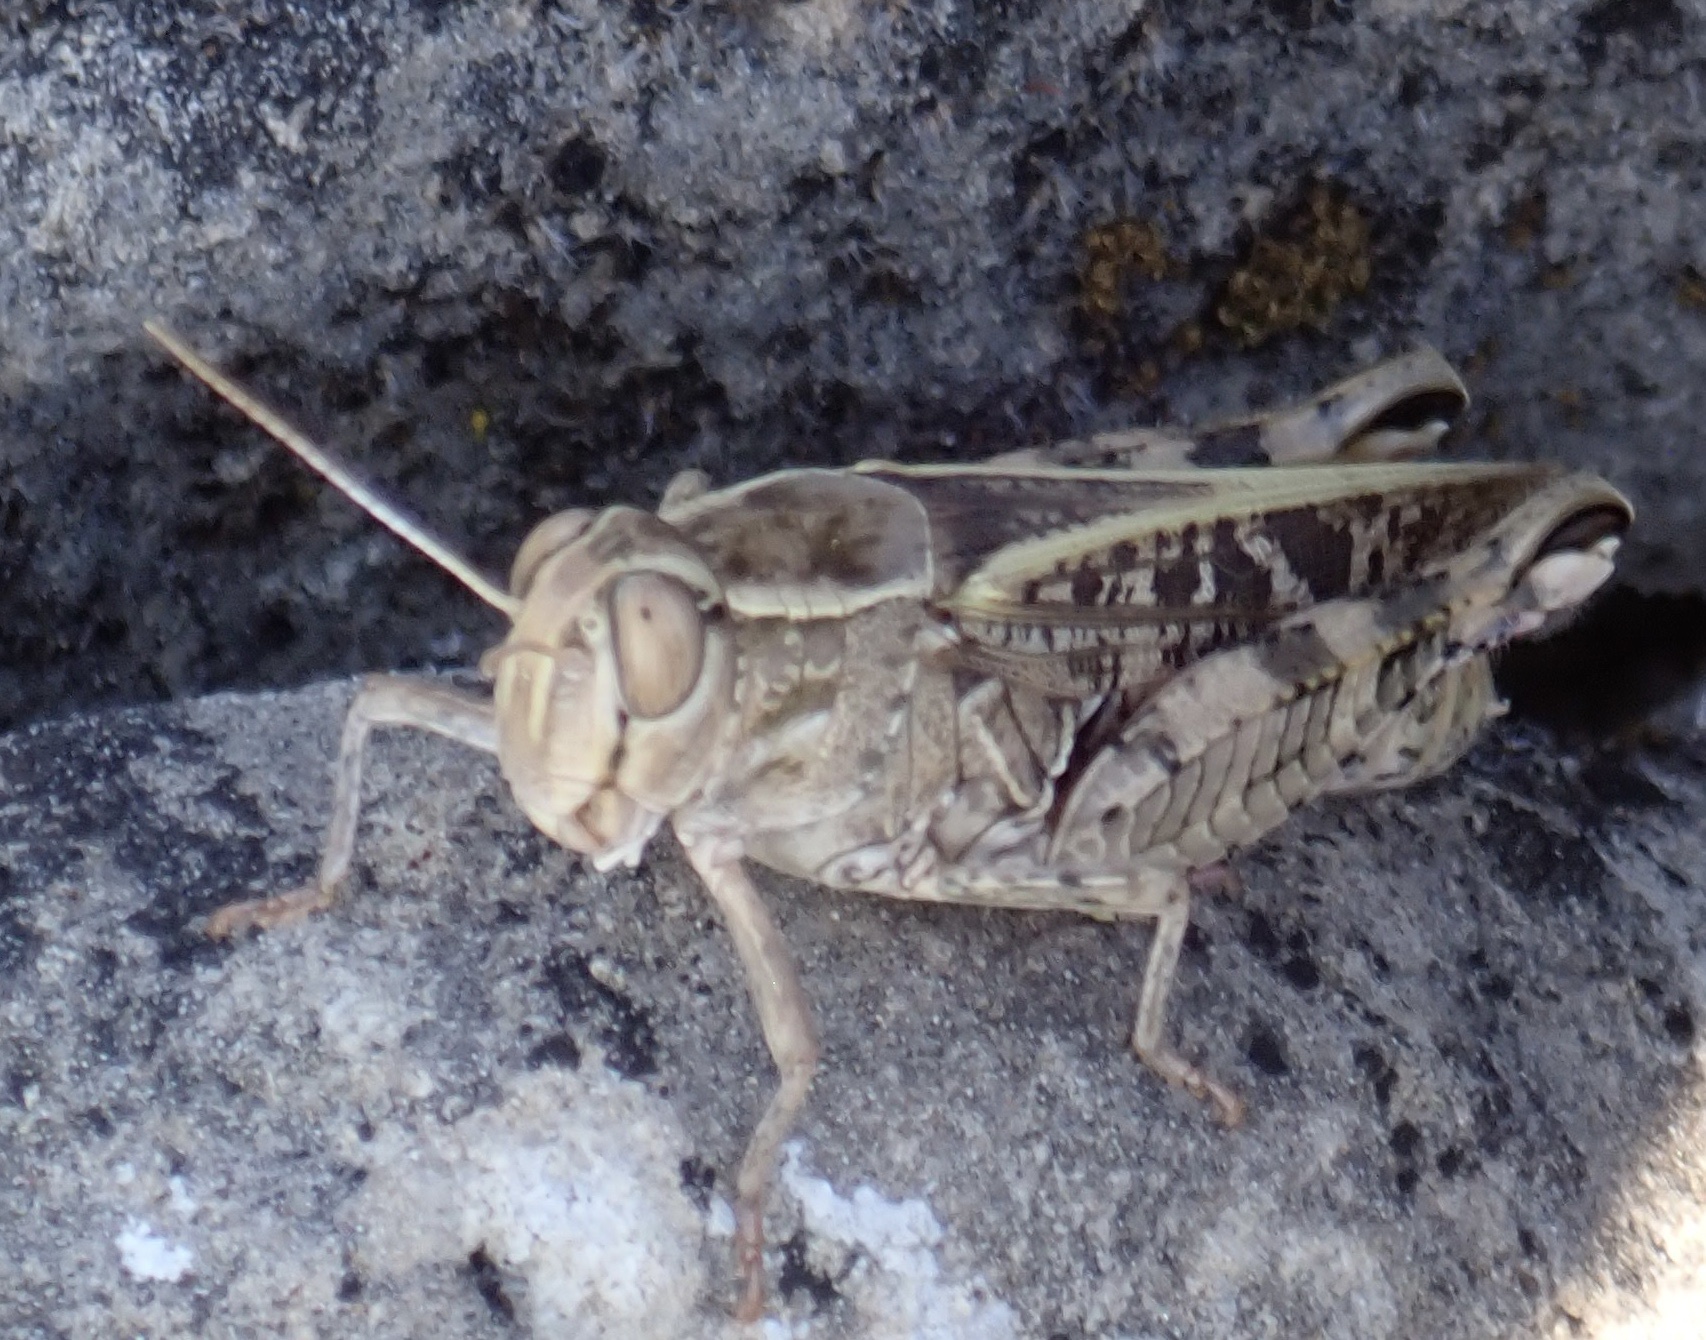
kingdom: Animalia
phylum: Arthropoda
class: Insecta
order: Orthoptera
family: Acrididae
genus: Calliptamus
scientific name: Calliptamus italicus
